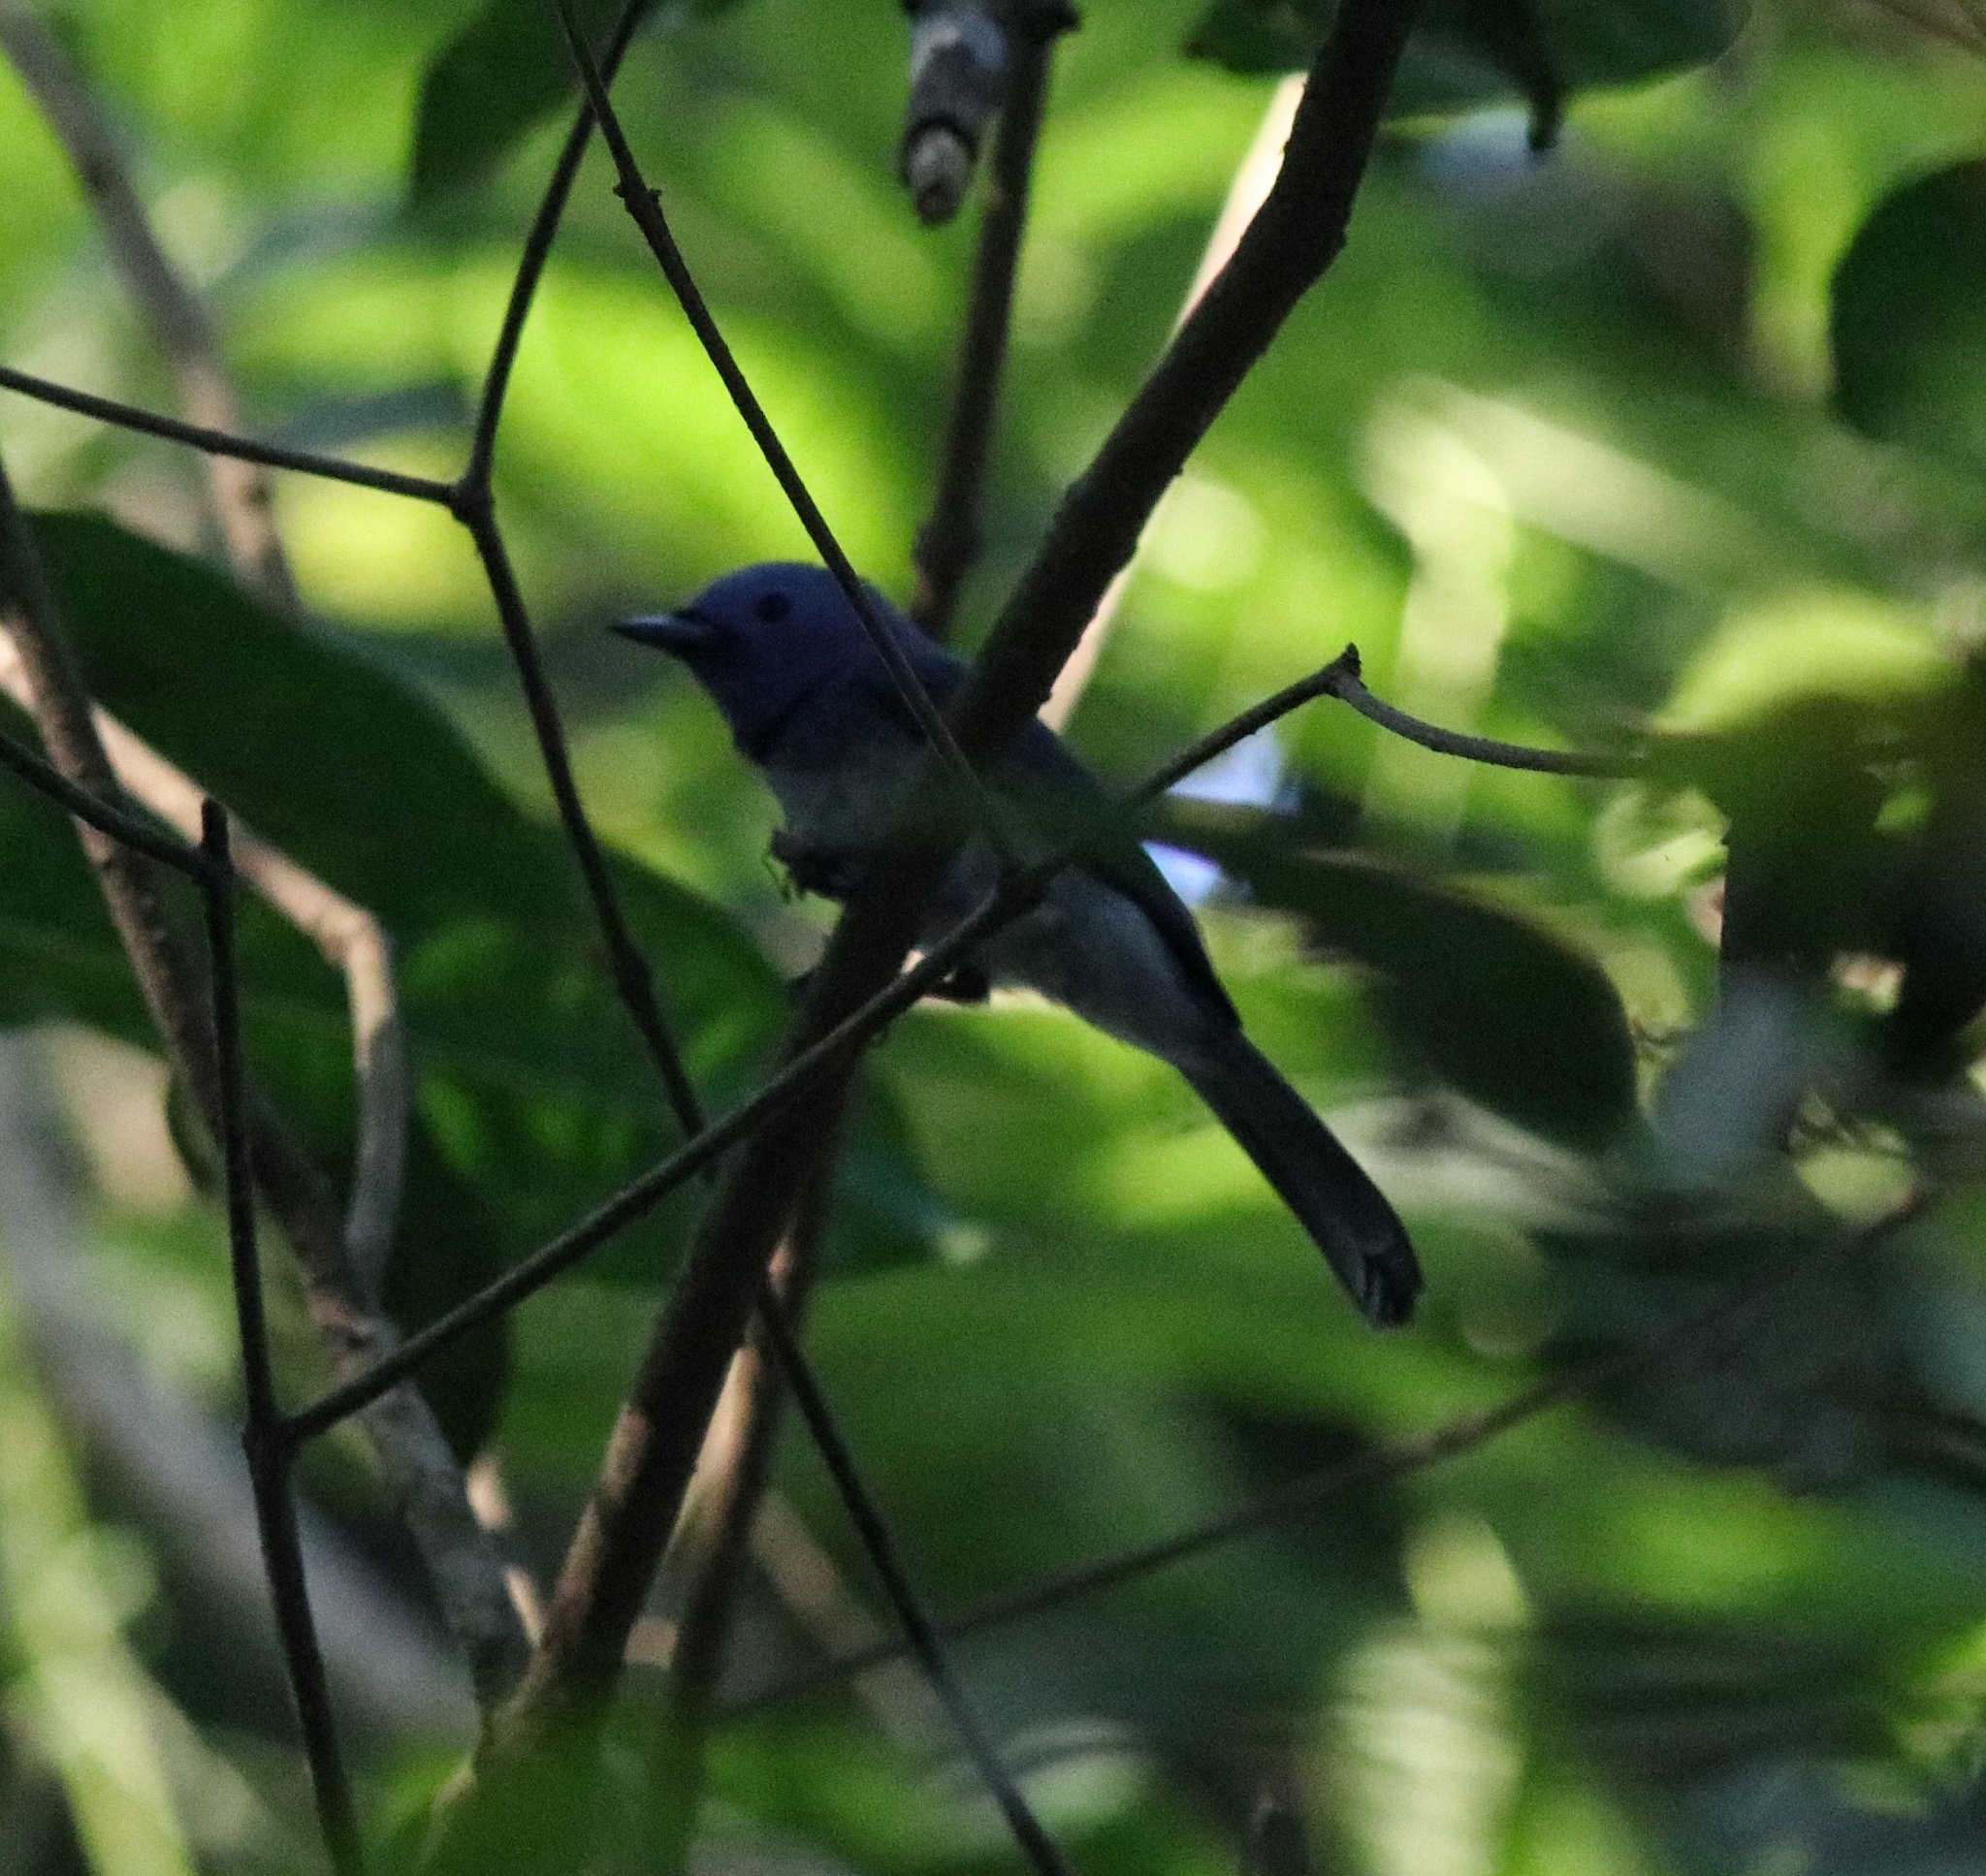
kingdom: Animalia
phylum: Chordata
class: Aves
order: Passeriformes
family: Monarchidae
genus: Hypothymis
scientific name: Hypothymis azurea
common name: Black-naped monarch
